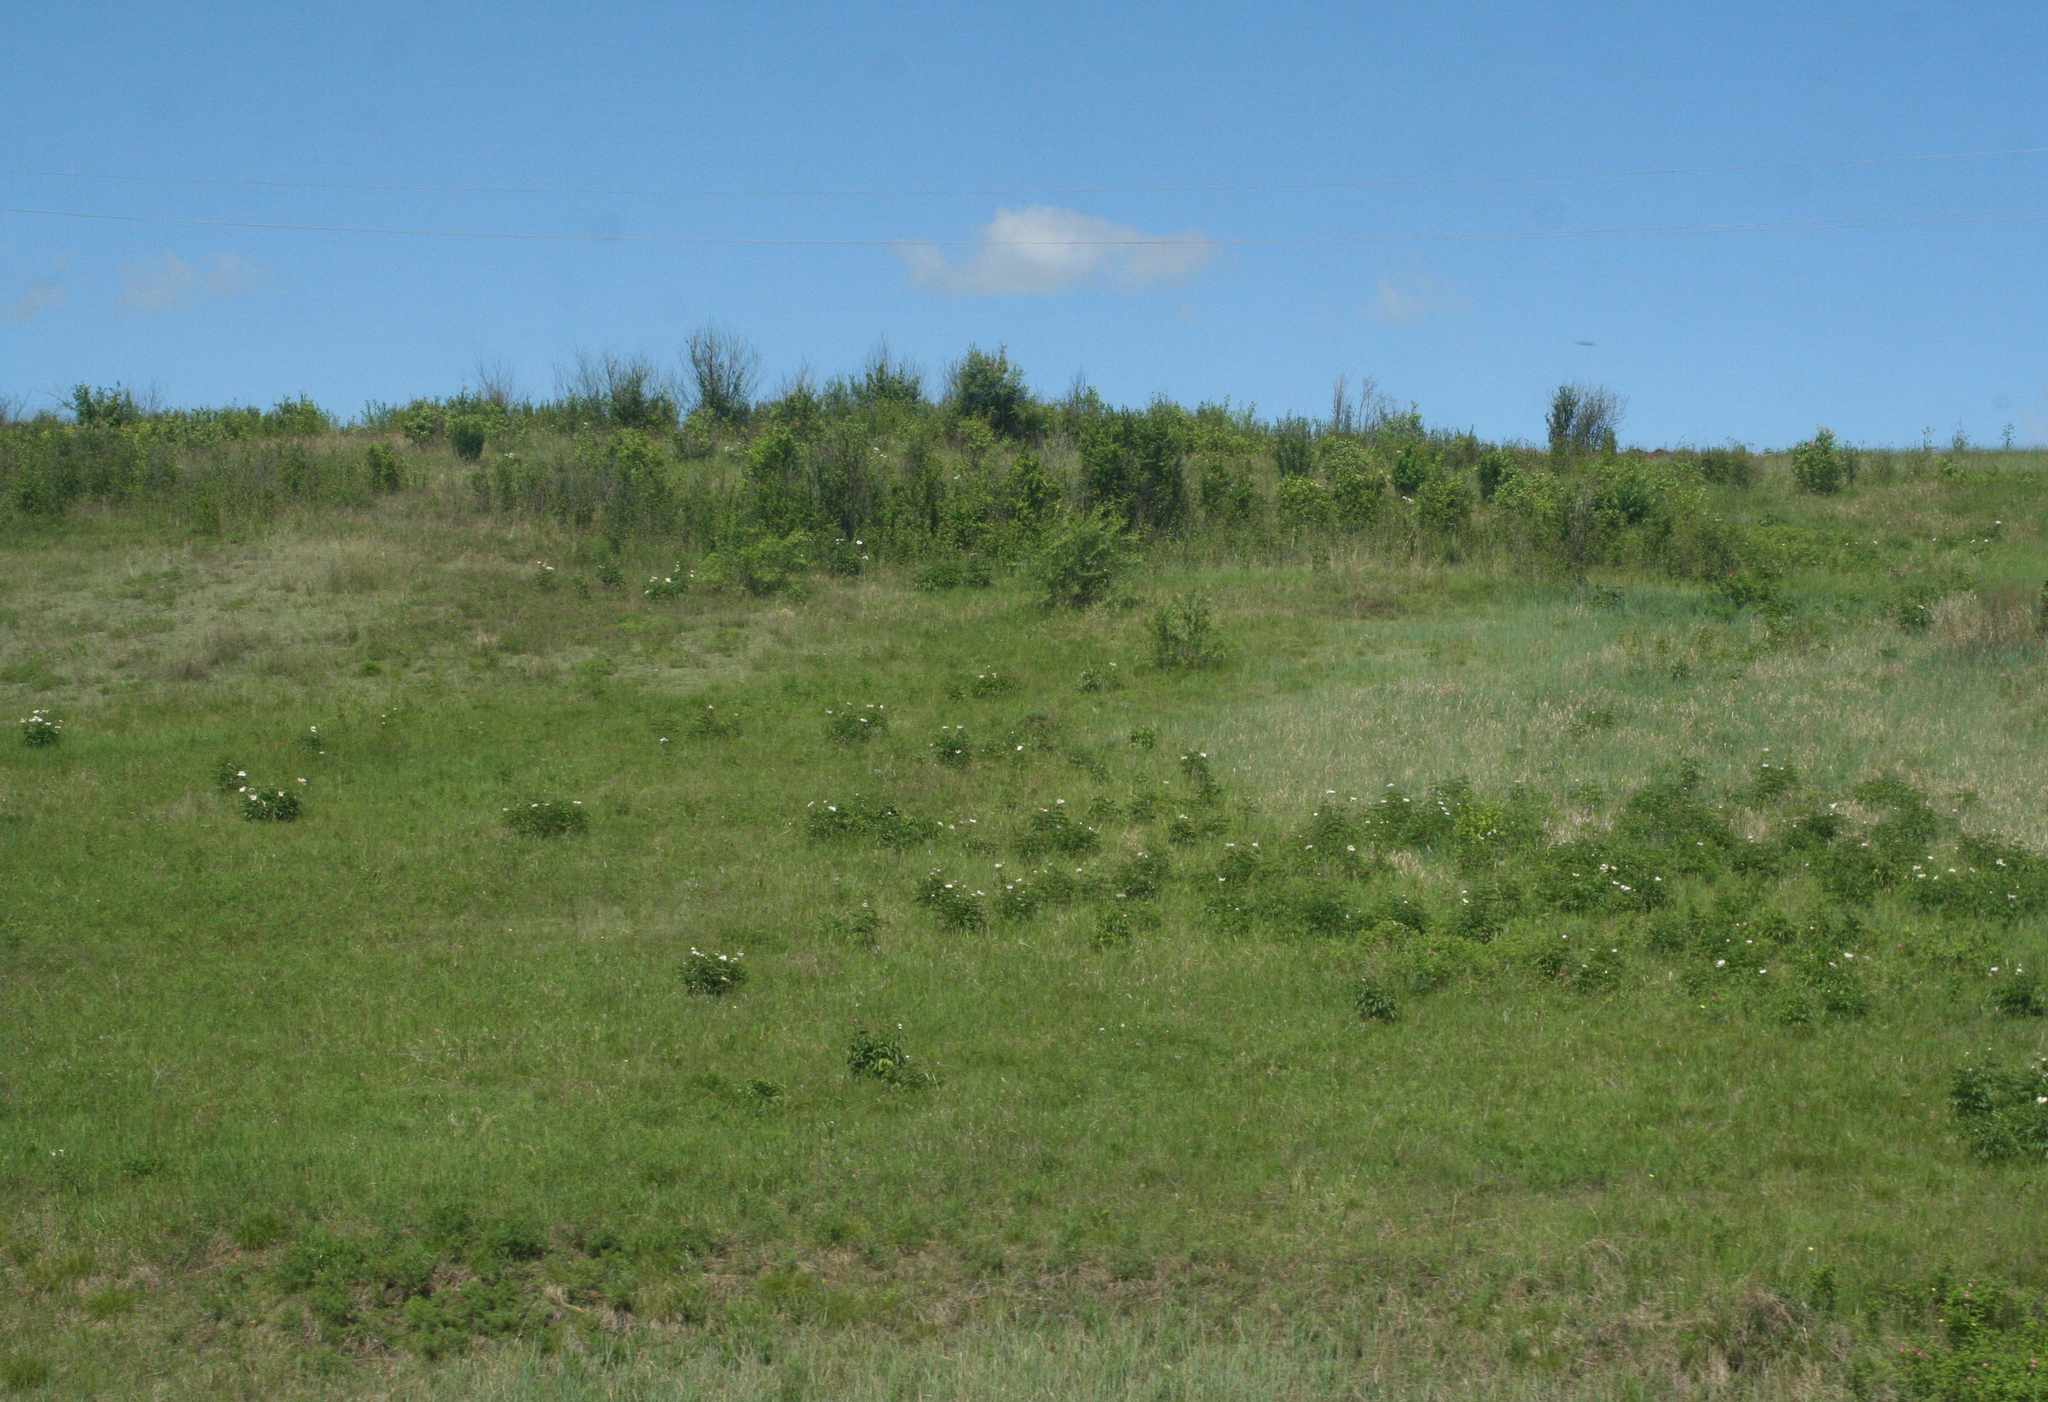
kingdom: Plantae
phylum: Tracheophyta
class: Magnoliopsida
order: Saxifragales
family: Paeoniaceae
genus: Paeonia
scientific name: Paeonia lactiflora
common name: Chinese peony
